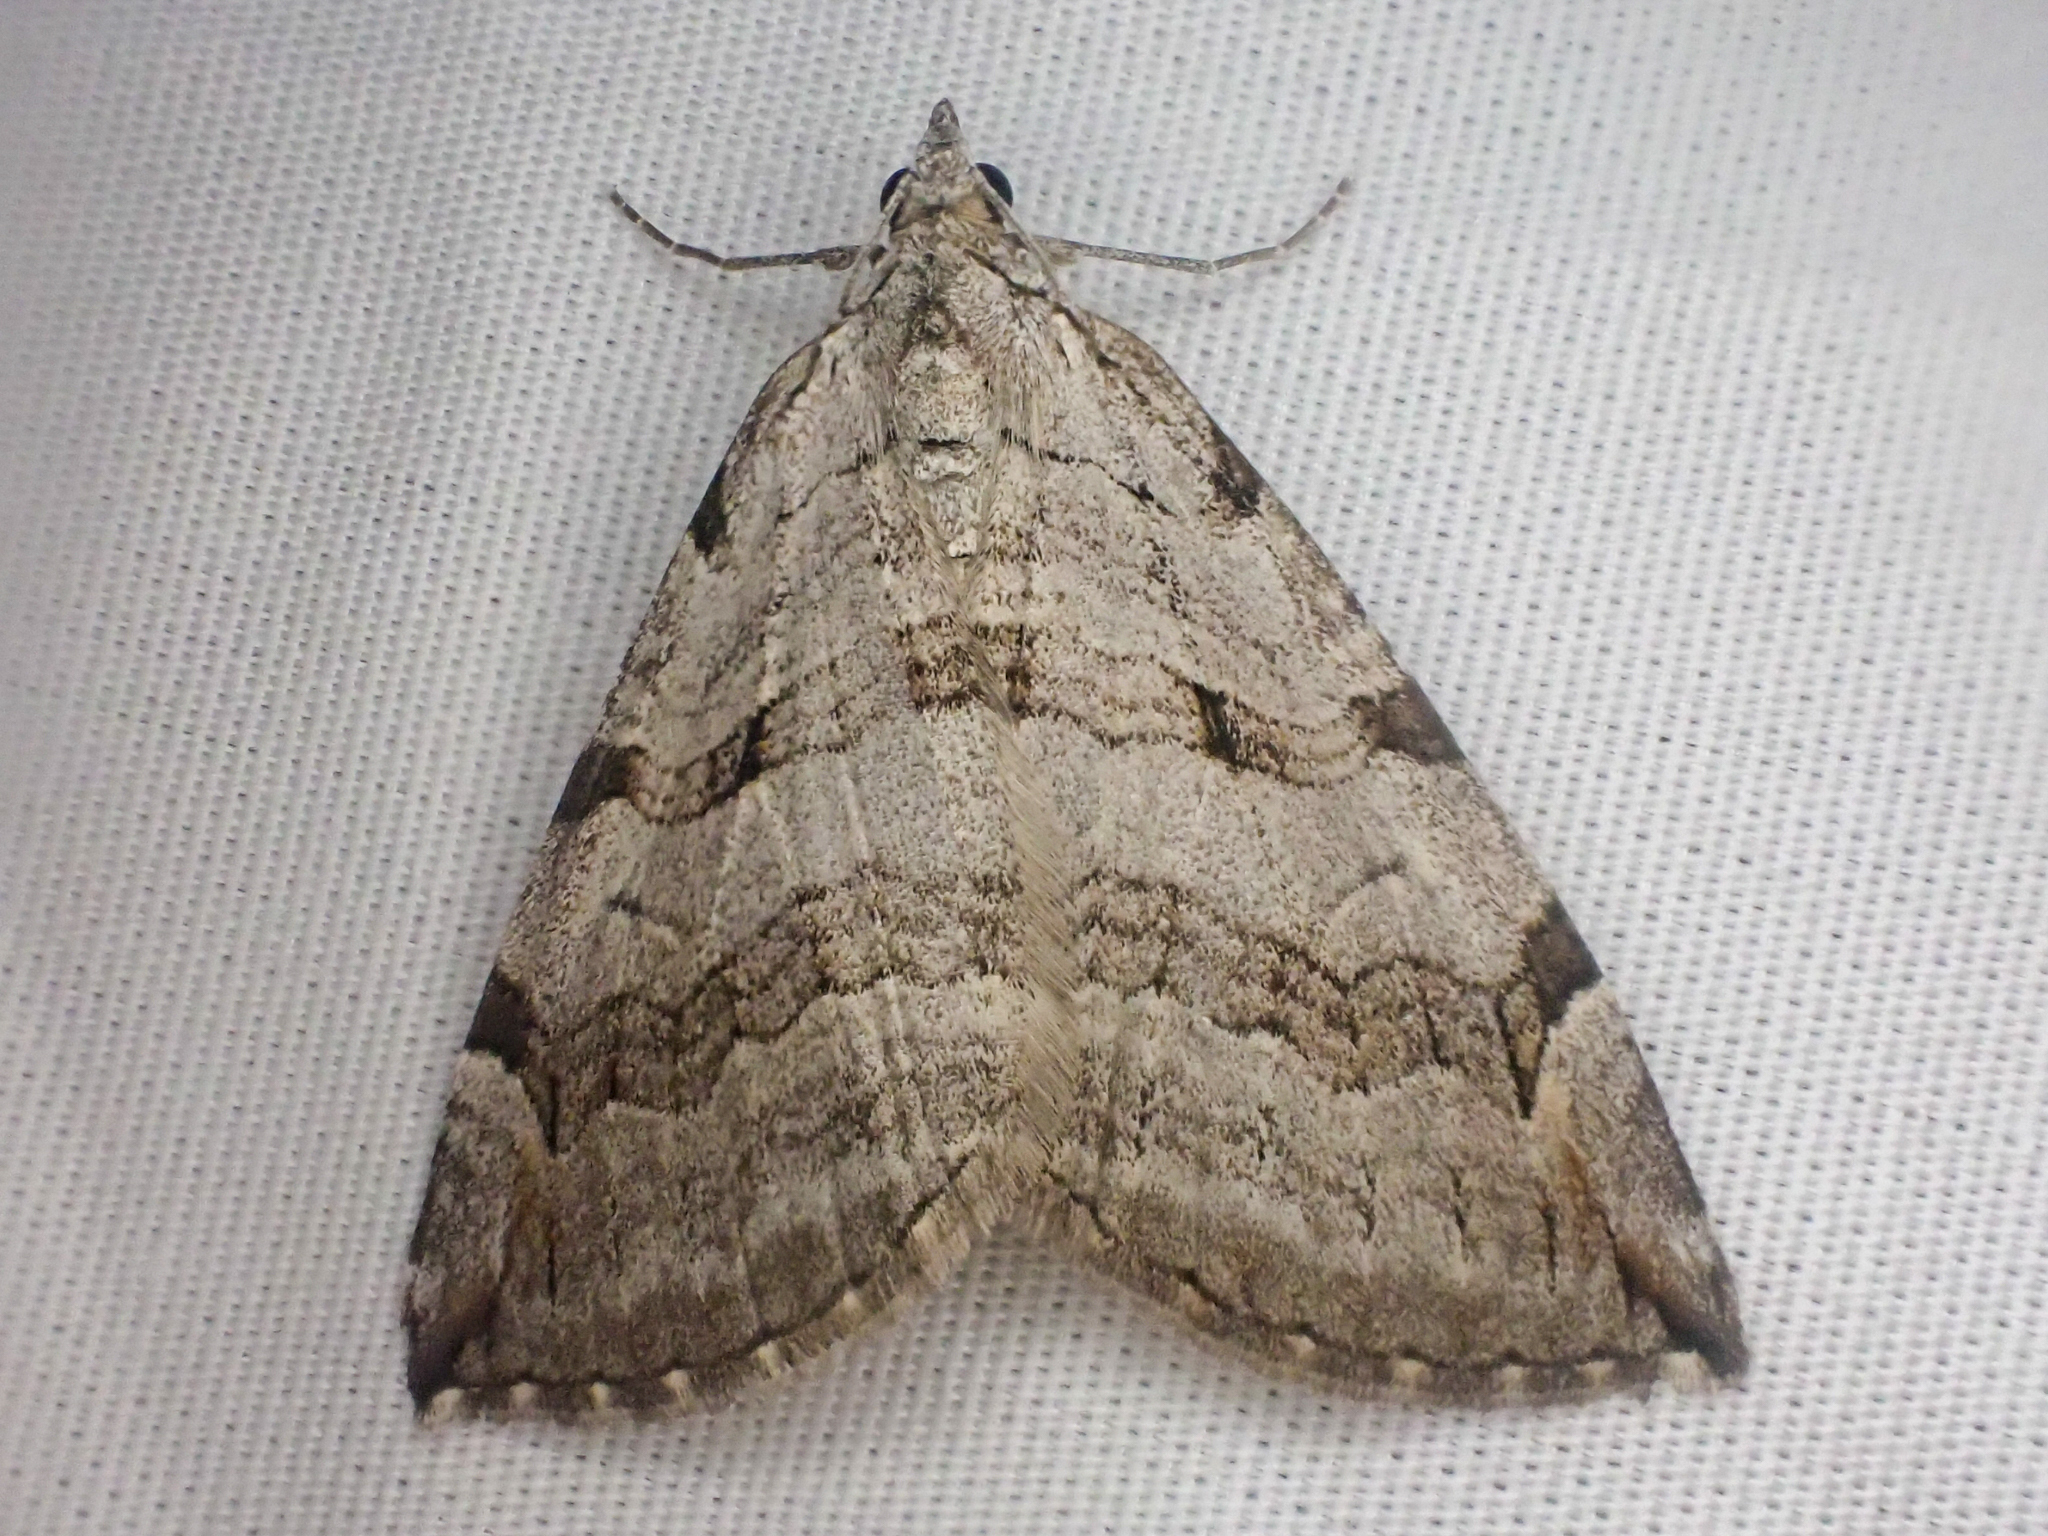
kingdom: Animalia
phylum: Arthropoda
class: Insecta
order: Lepidoptera
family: Geometridae
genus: Aplocera
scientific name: Aplocera plagiata
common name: Treble-bar
